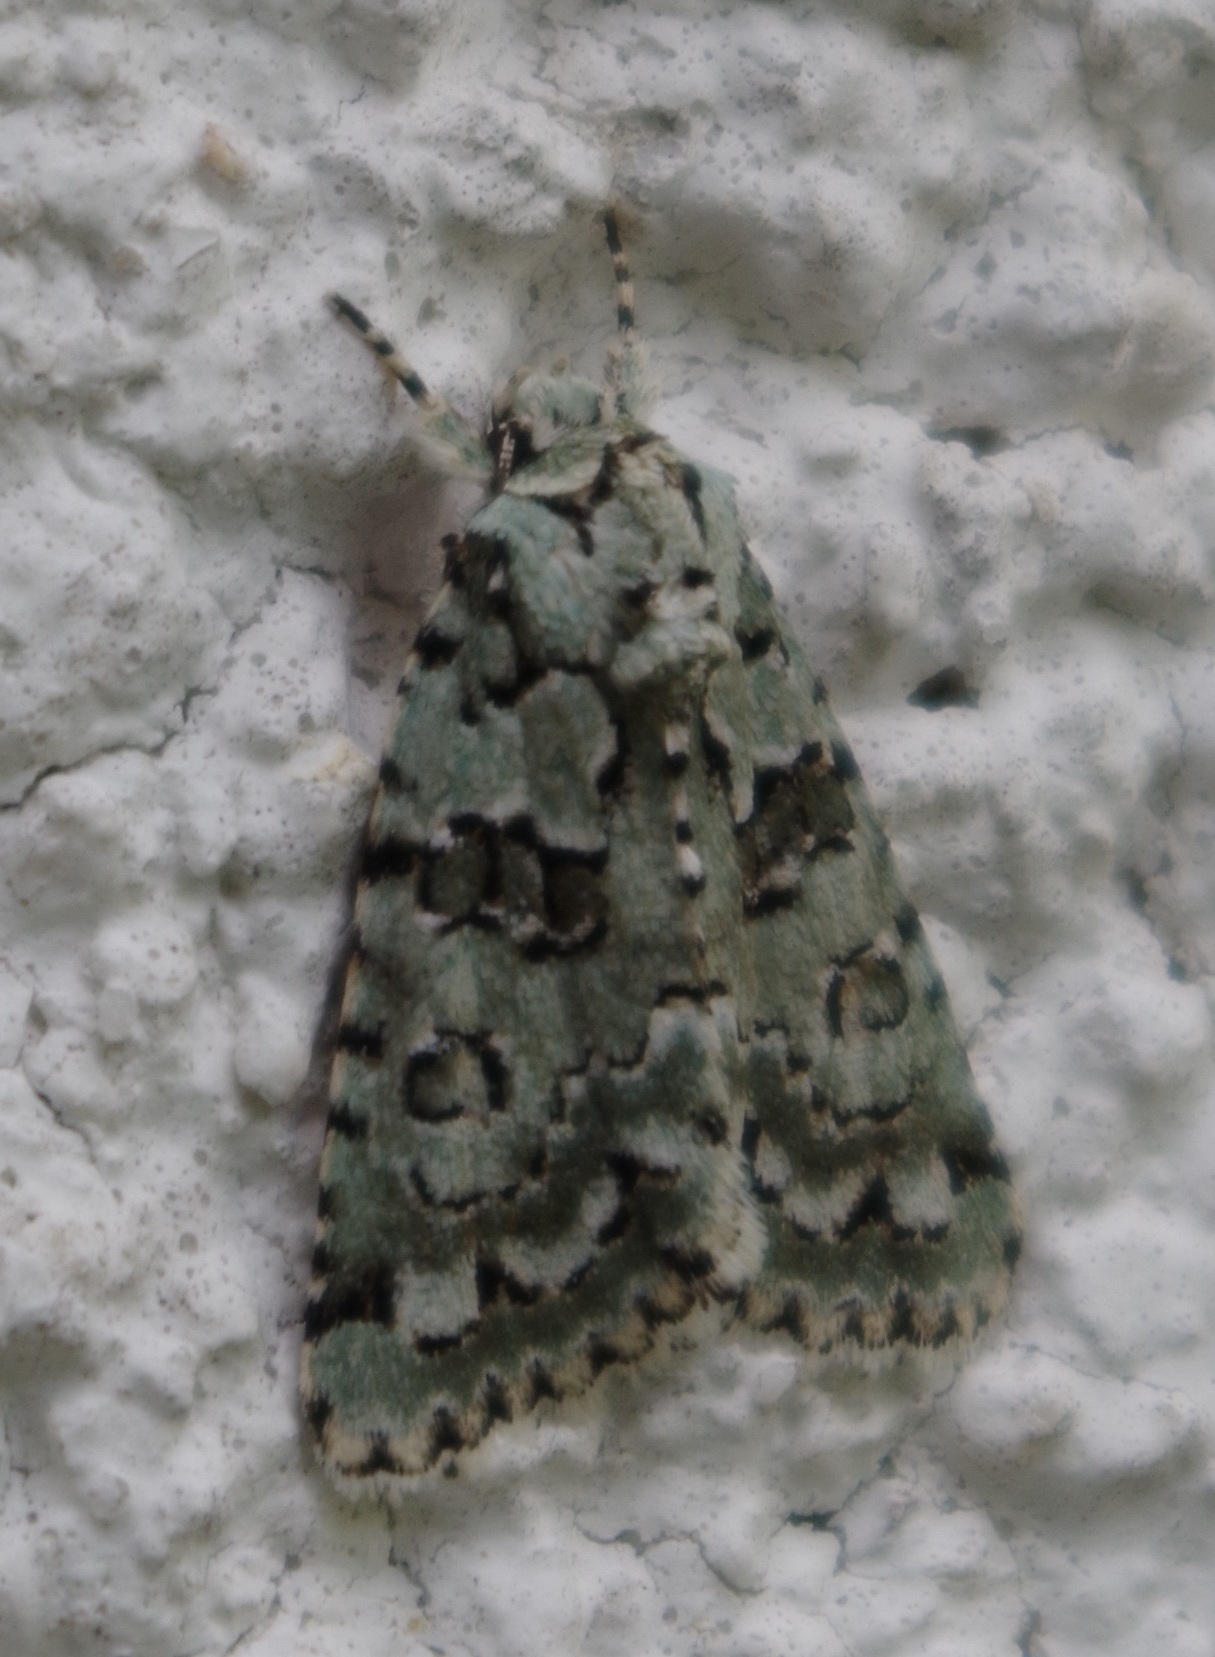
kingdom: Animalia
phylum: Arthropoda
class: Insecta
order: Lepidoptera
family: Noctuidae
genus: Nyctobrya
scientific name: Nyctobrya muralis
